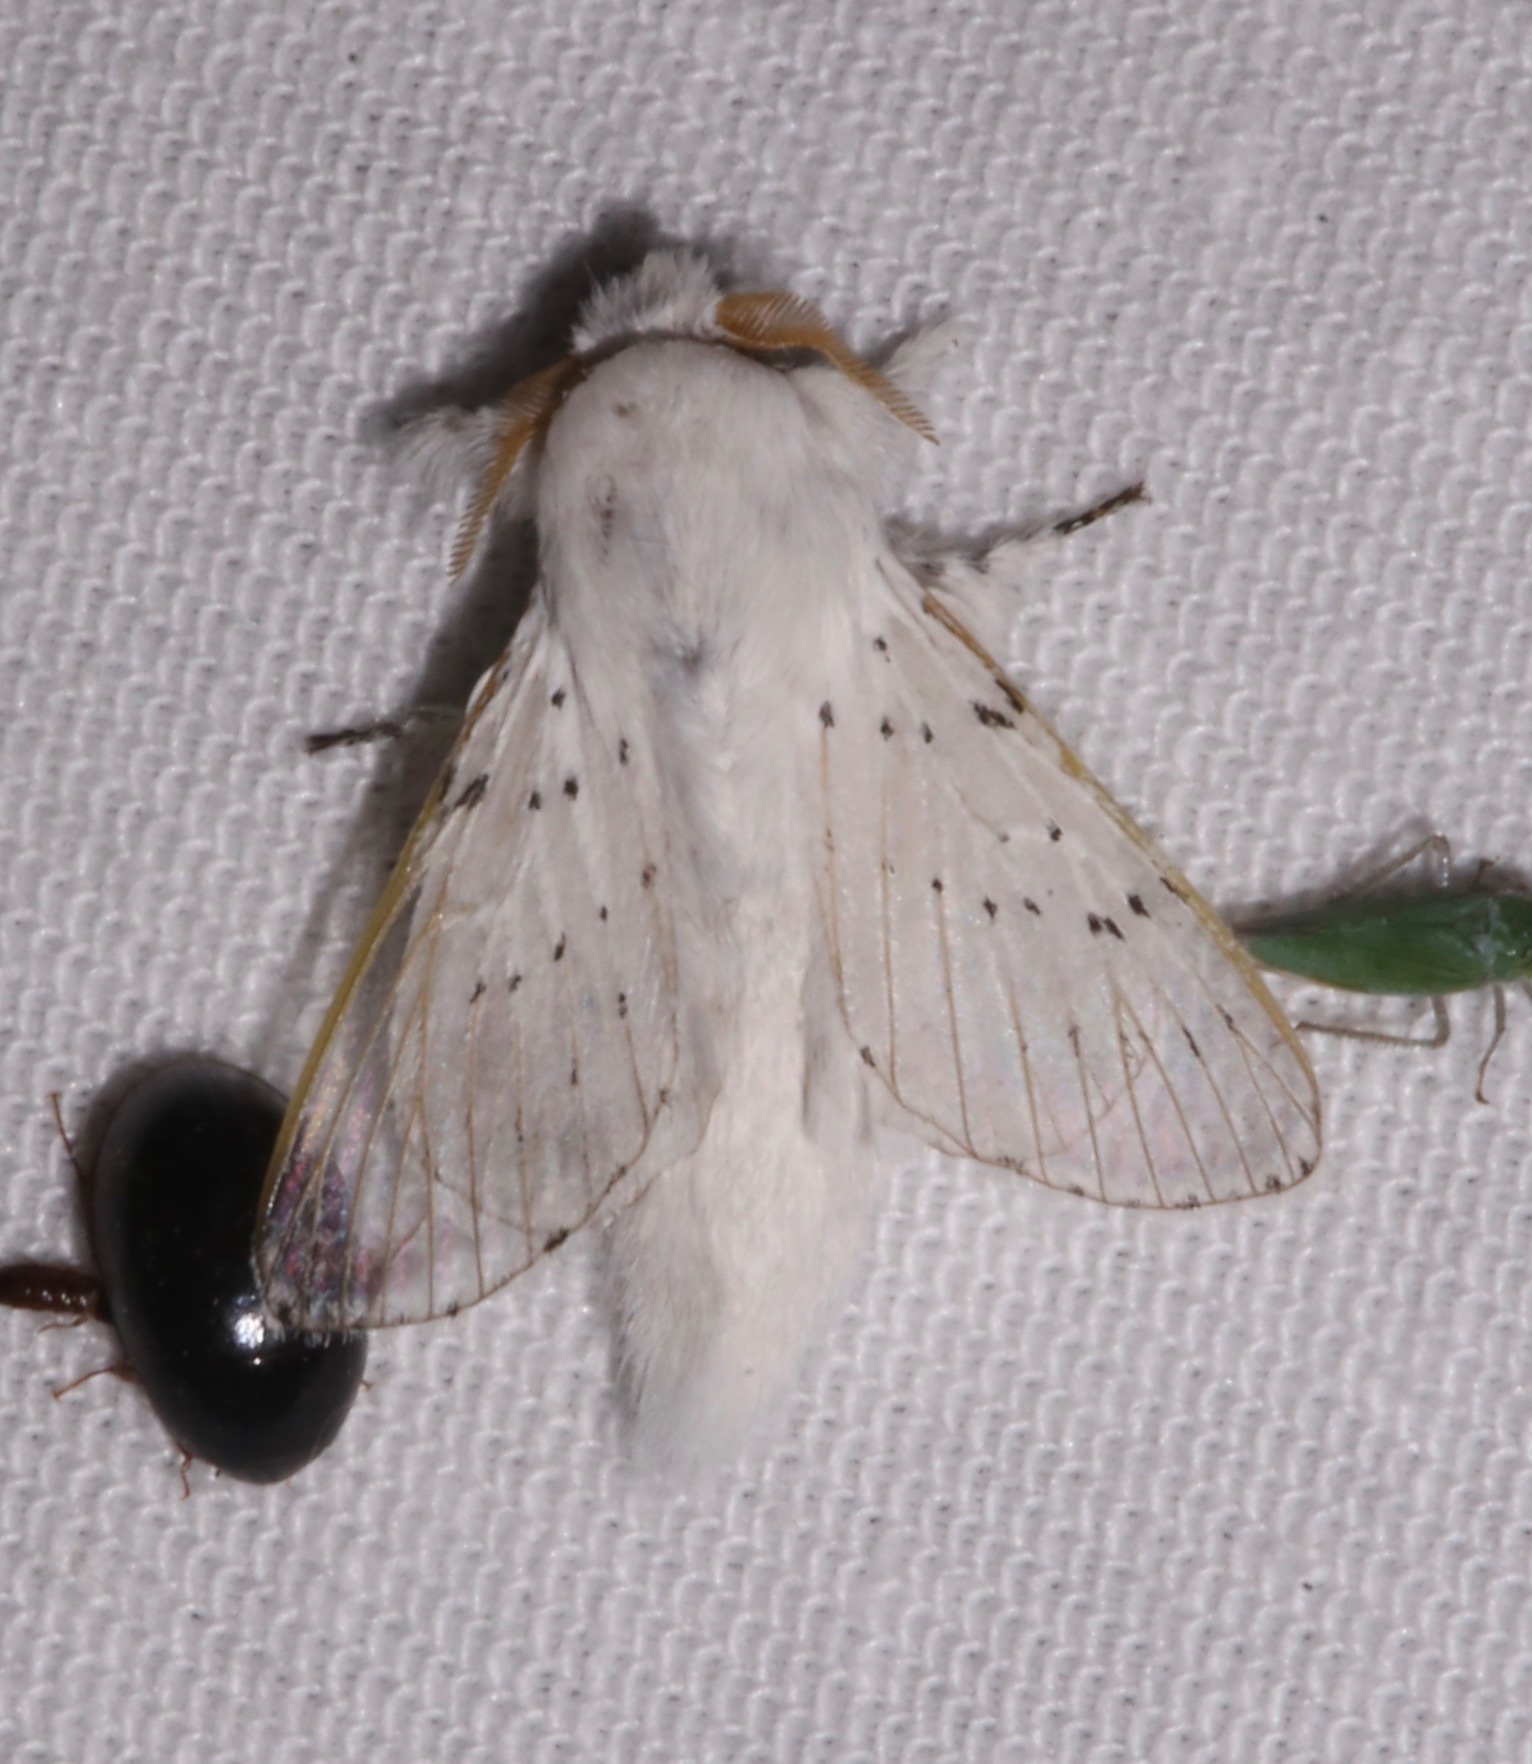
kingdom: Animalia
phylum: Arthropoda
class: Insecta
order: Lepidoptera
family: Lasiocampidae
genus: Artace
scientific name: Artace cribrarius
